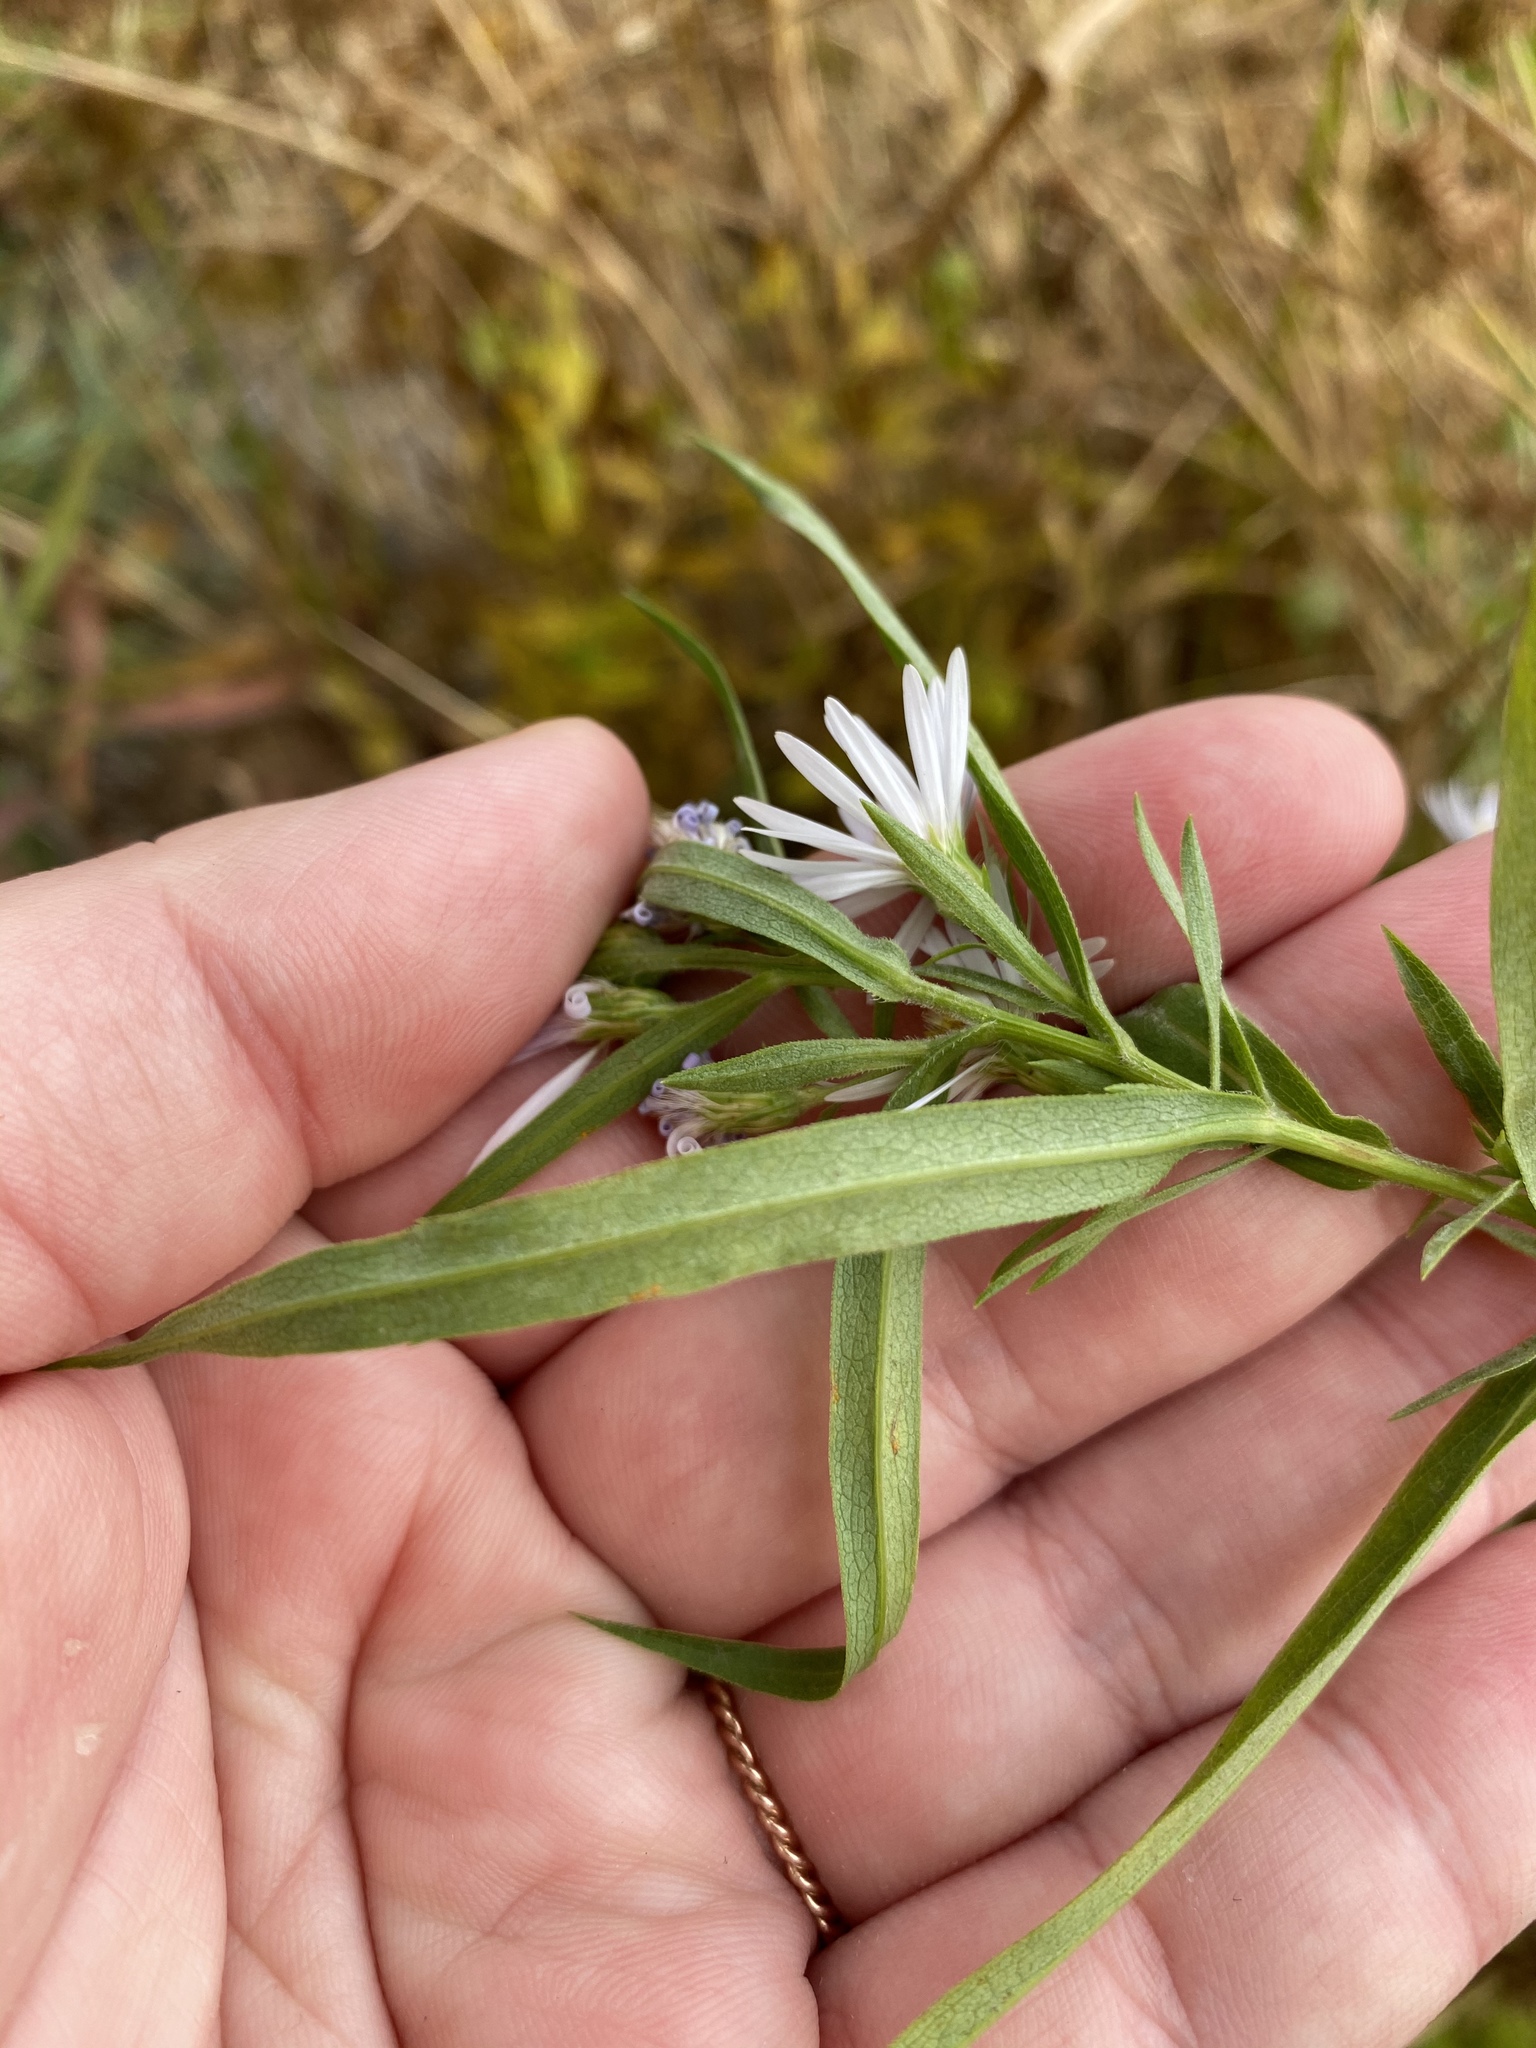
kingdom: Plantae
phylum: Tracheophyta
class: Magnoliopsida
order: Asterales
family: Asteraceae
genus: Symphyotrichum
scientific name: Symphyotrichum praealtum
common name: Willow aster
